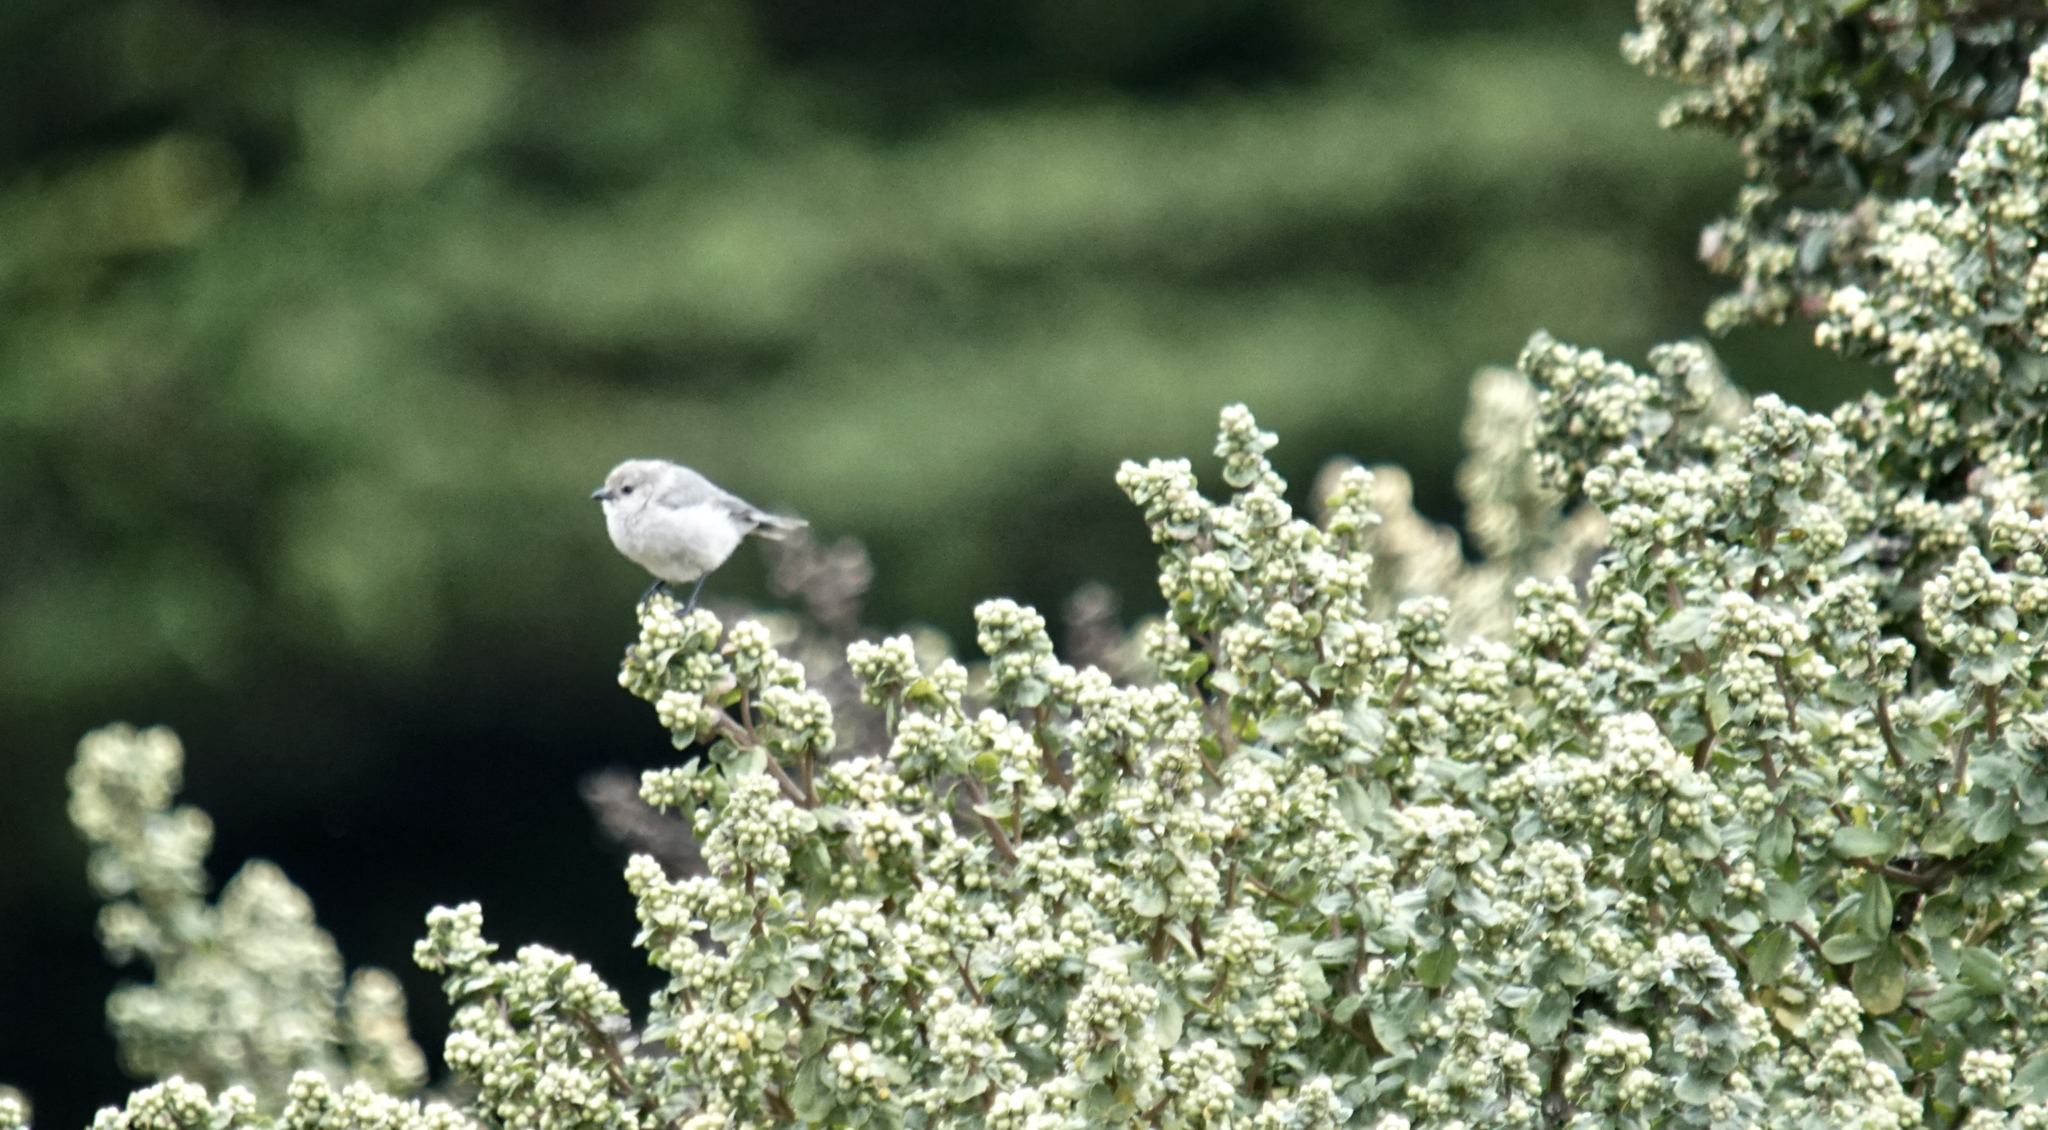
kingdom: Animalia
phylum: Chordata
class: Aves
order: Passeriformes
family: Aegithalidae
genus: Psaltriparus
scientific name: Psaltriparus minimus
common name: American bushtit
